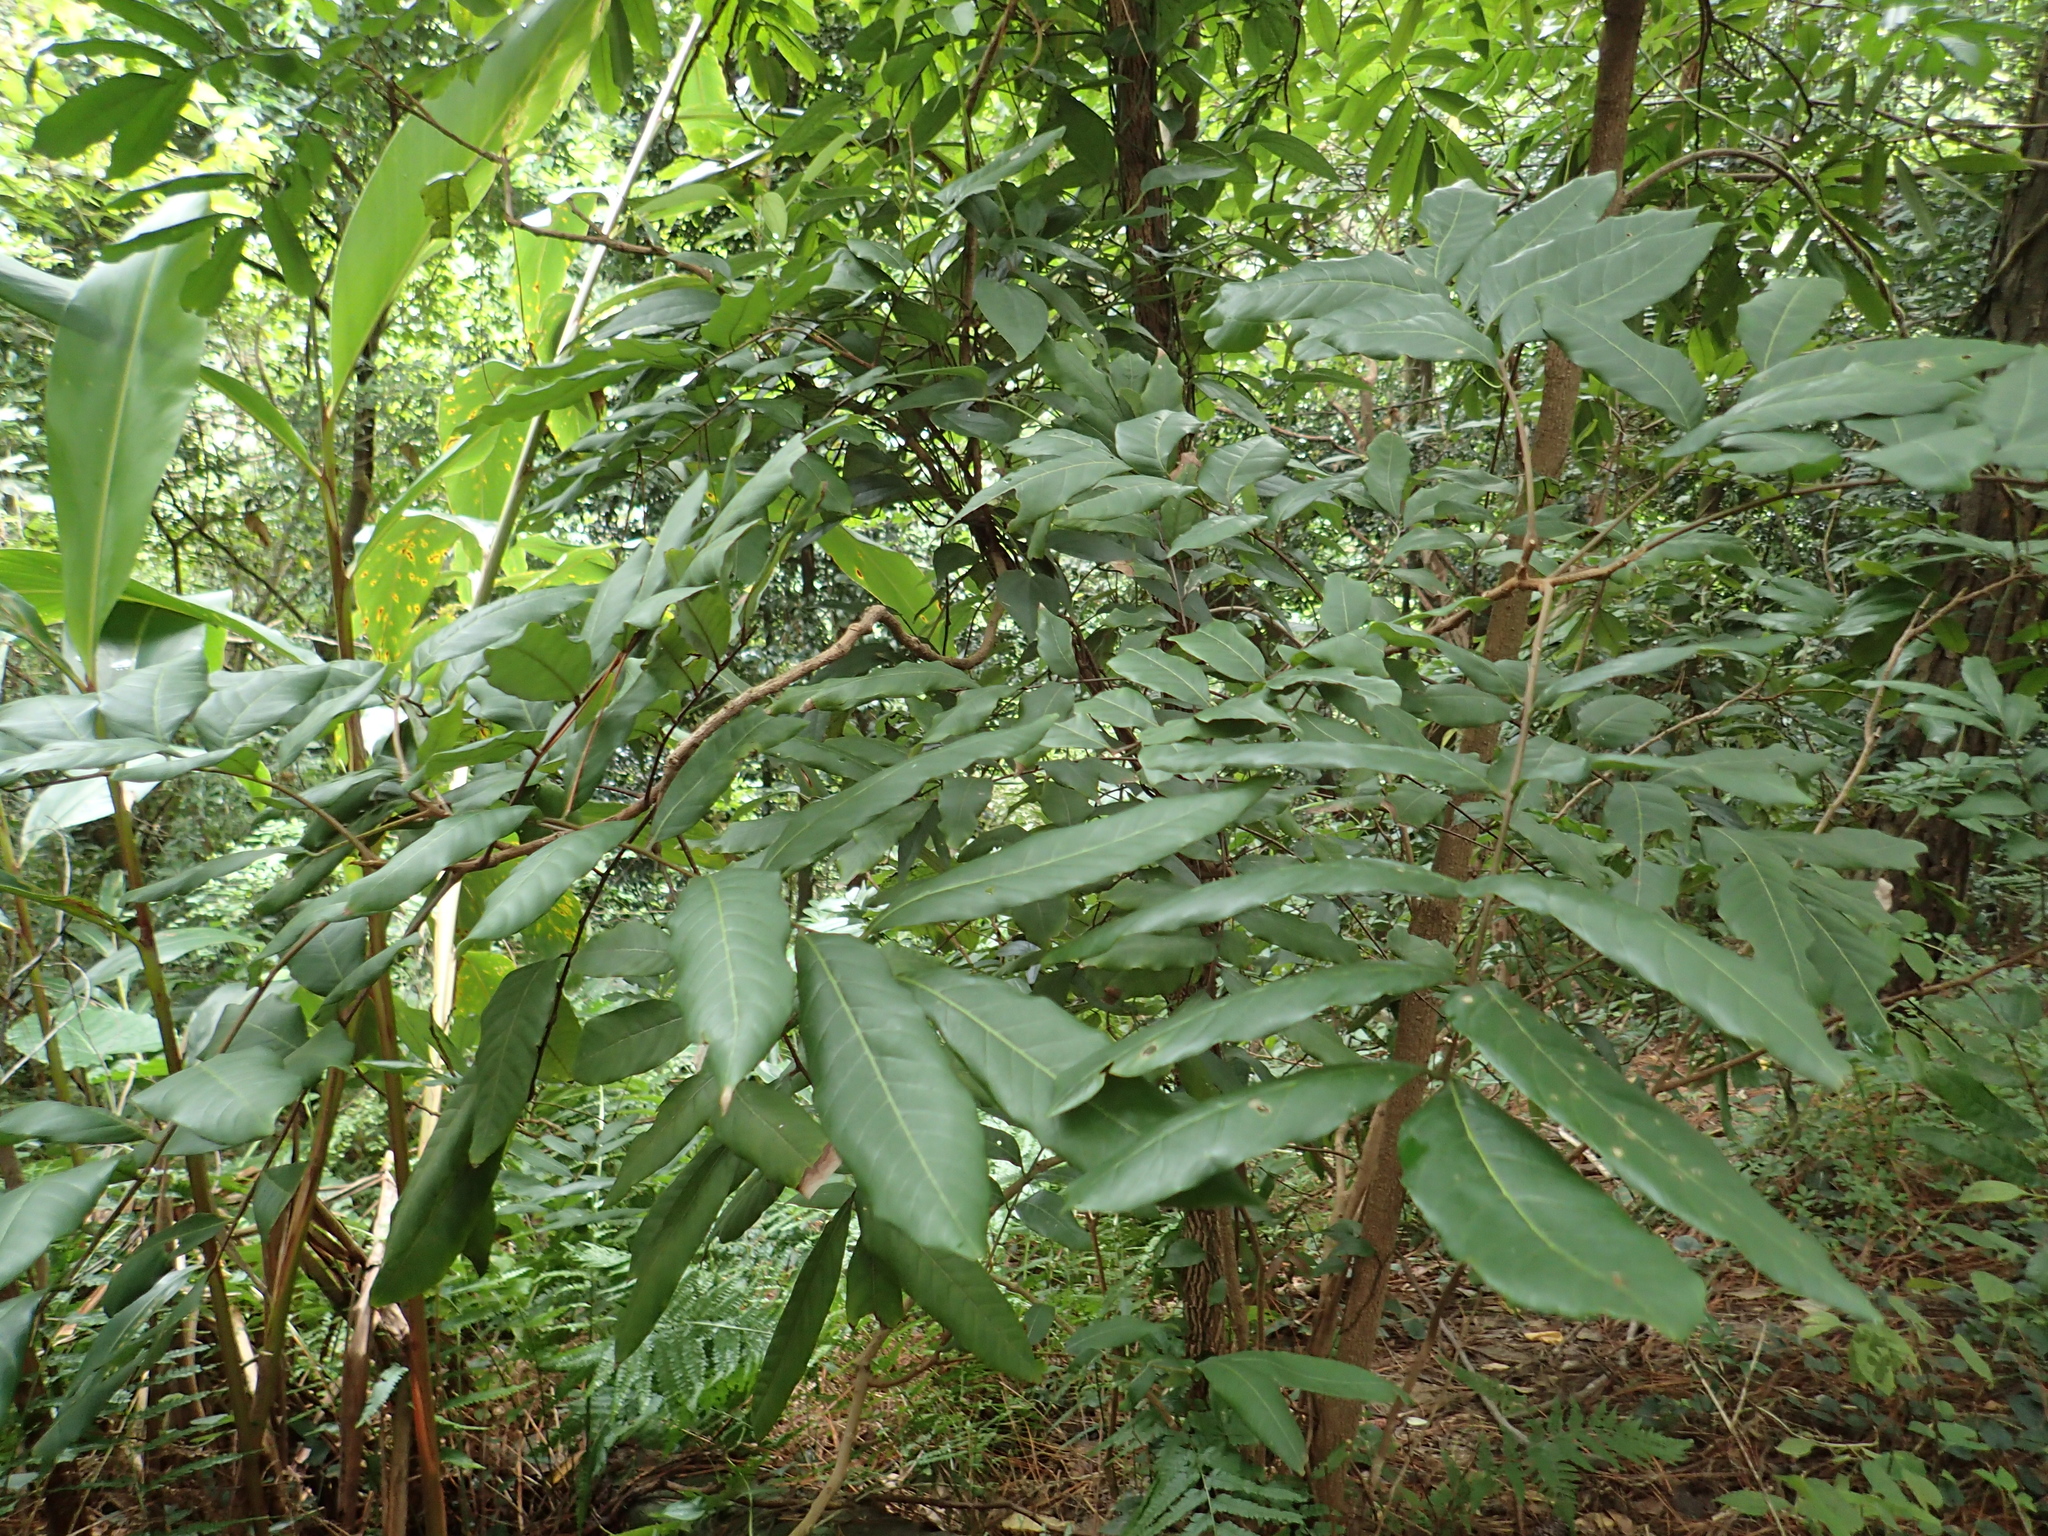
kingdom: Plantae
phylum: Tracheophyta
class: Magnoliopsida
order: Sapindales
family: Sapindaceae
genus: Dimocarpus
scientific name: Dimocarpus longan
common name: Longan
